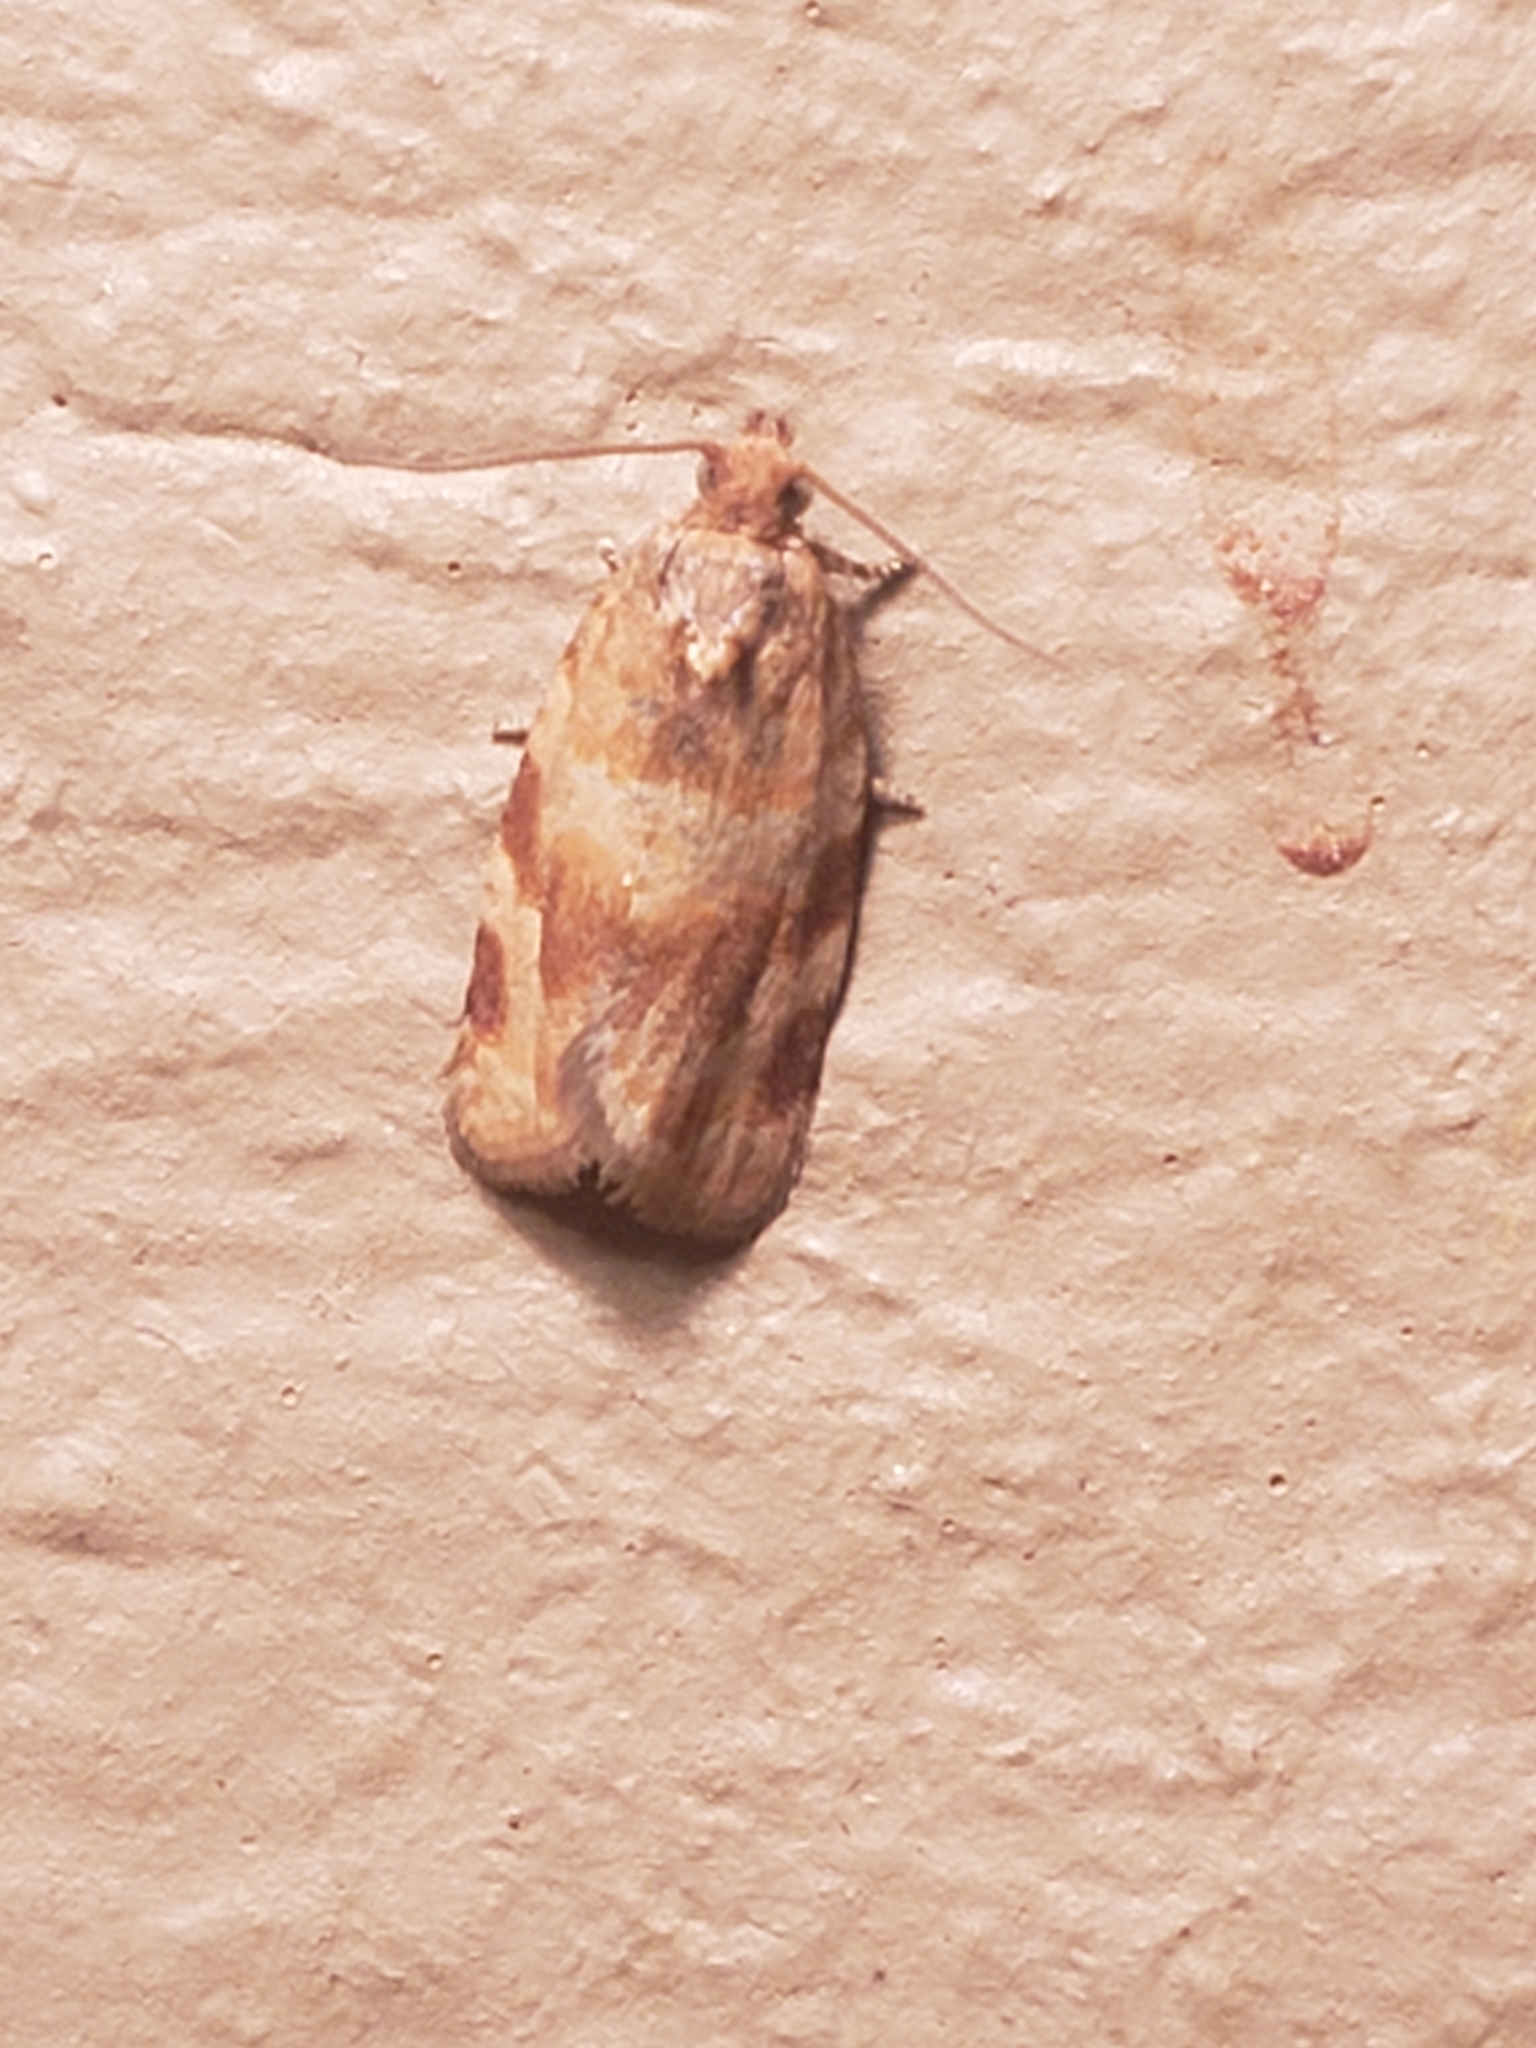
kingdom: Animalia
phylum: Arthropoda
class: Insecta
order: Lepidoptera
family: Tortricidae
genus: Argyrotaenia
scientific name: Argyrotaenia pinatubana
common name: Pine tube moth
